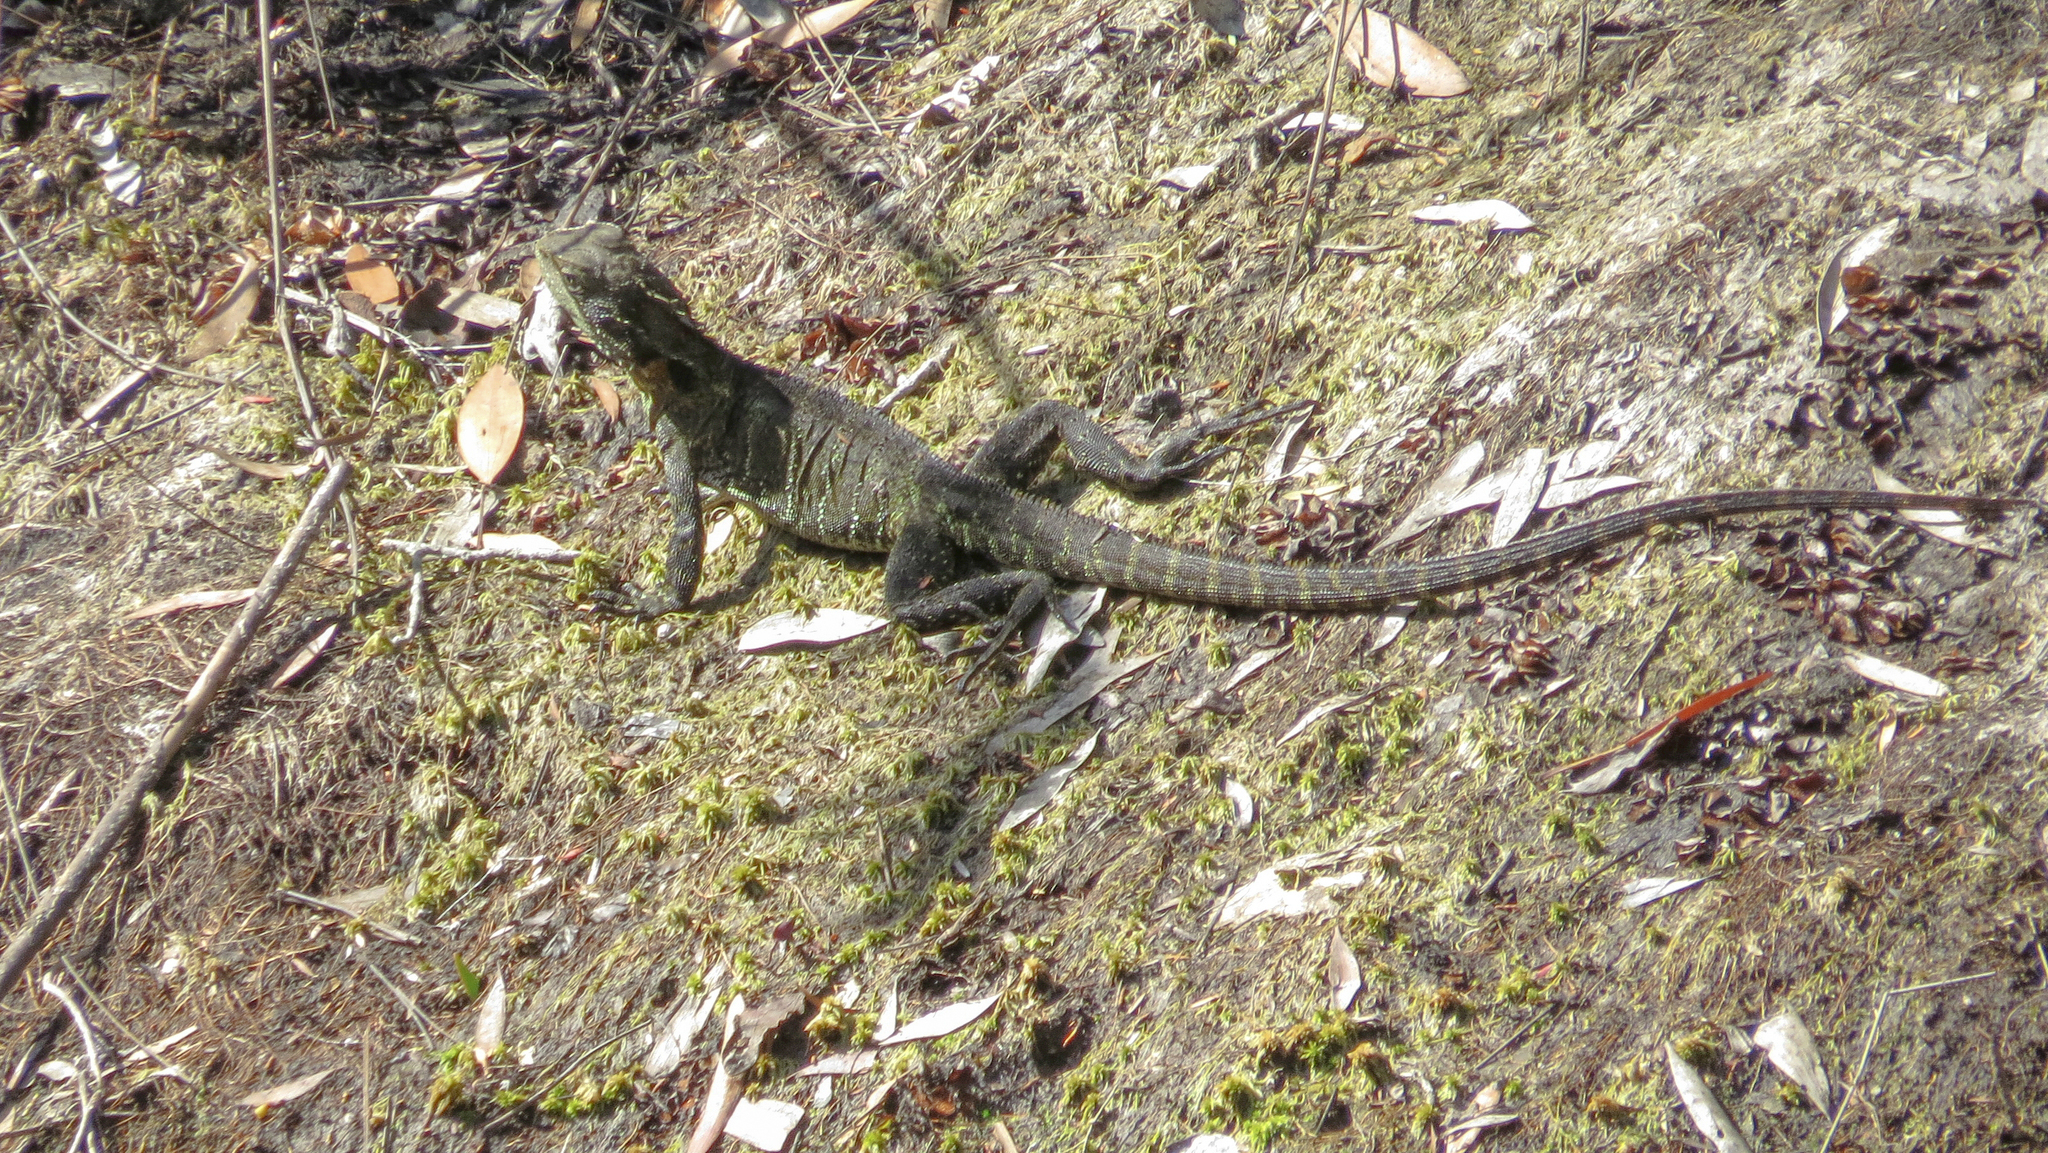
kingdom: Animalia
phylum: Chordata
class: Squamata
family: Agamidae
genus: Intellagama
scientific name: Intellagama lesueurii
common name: Eastern water dragon
